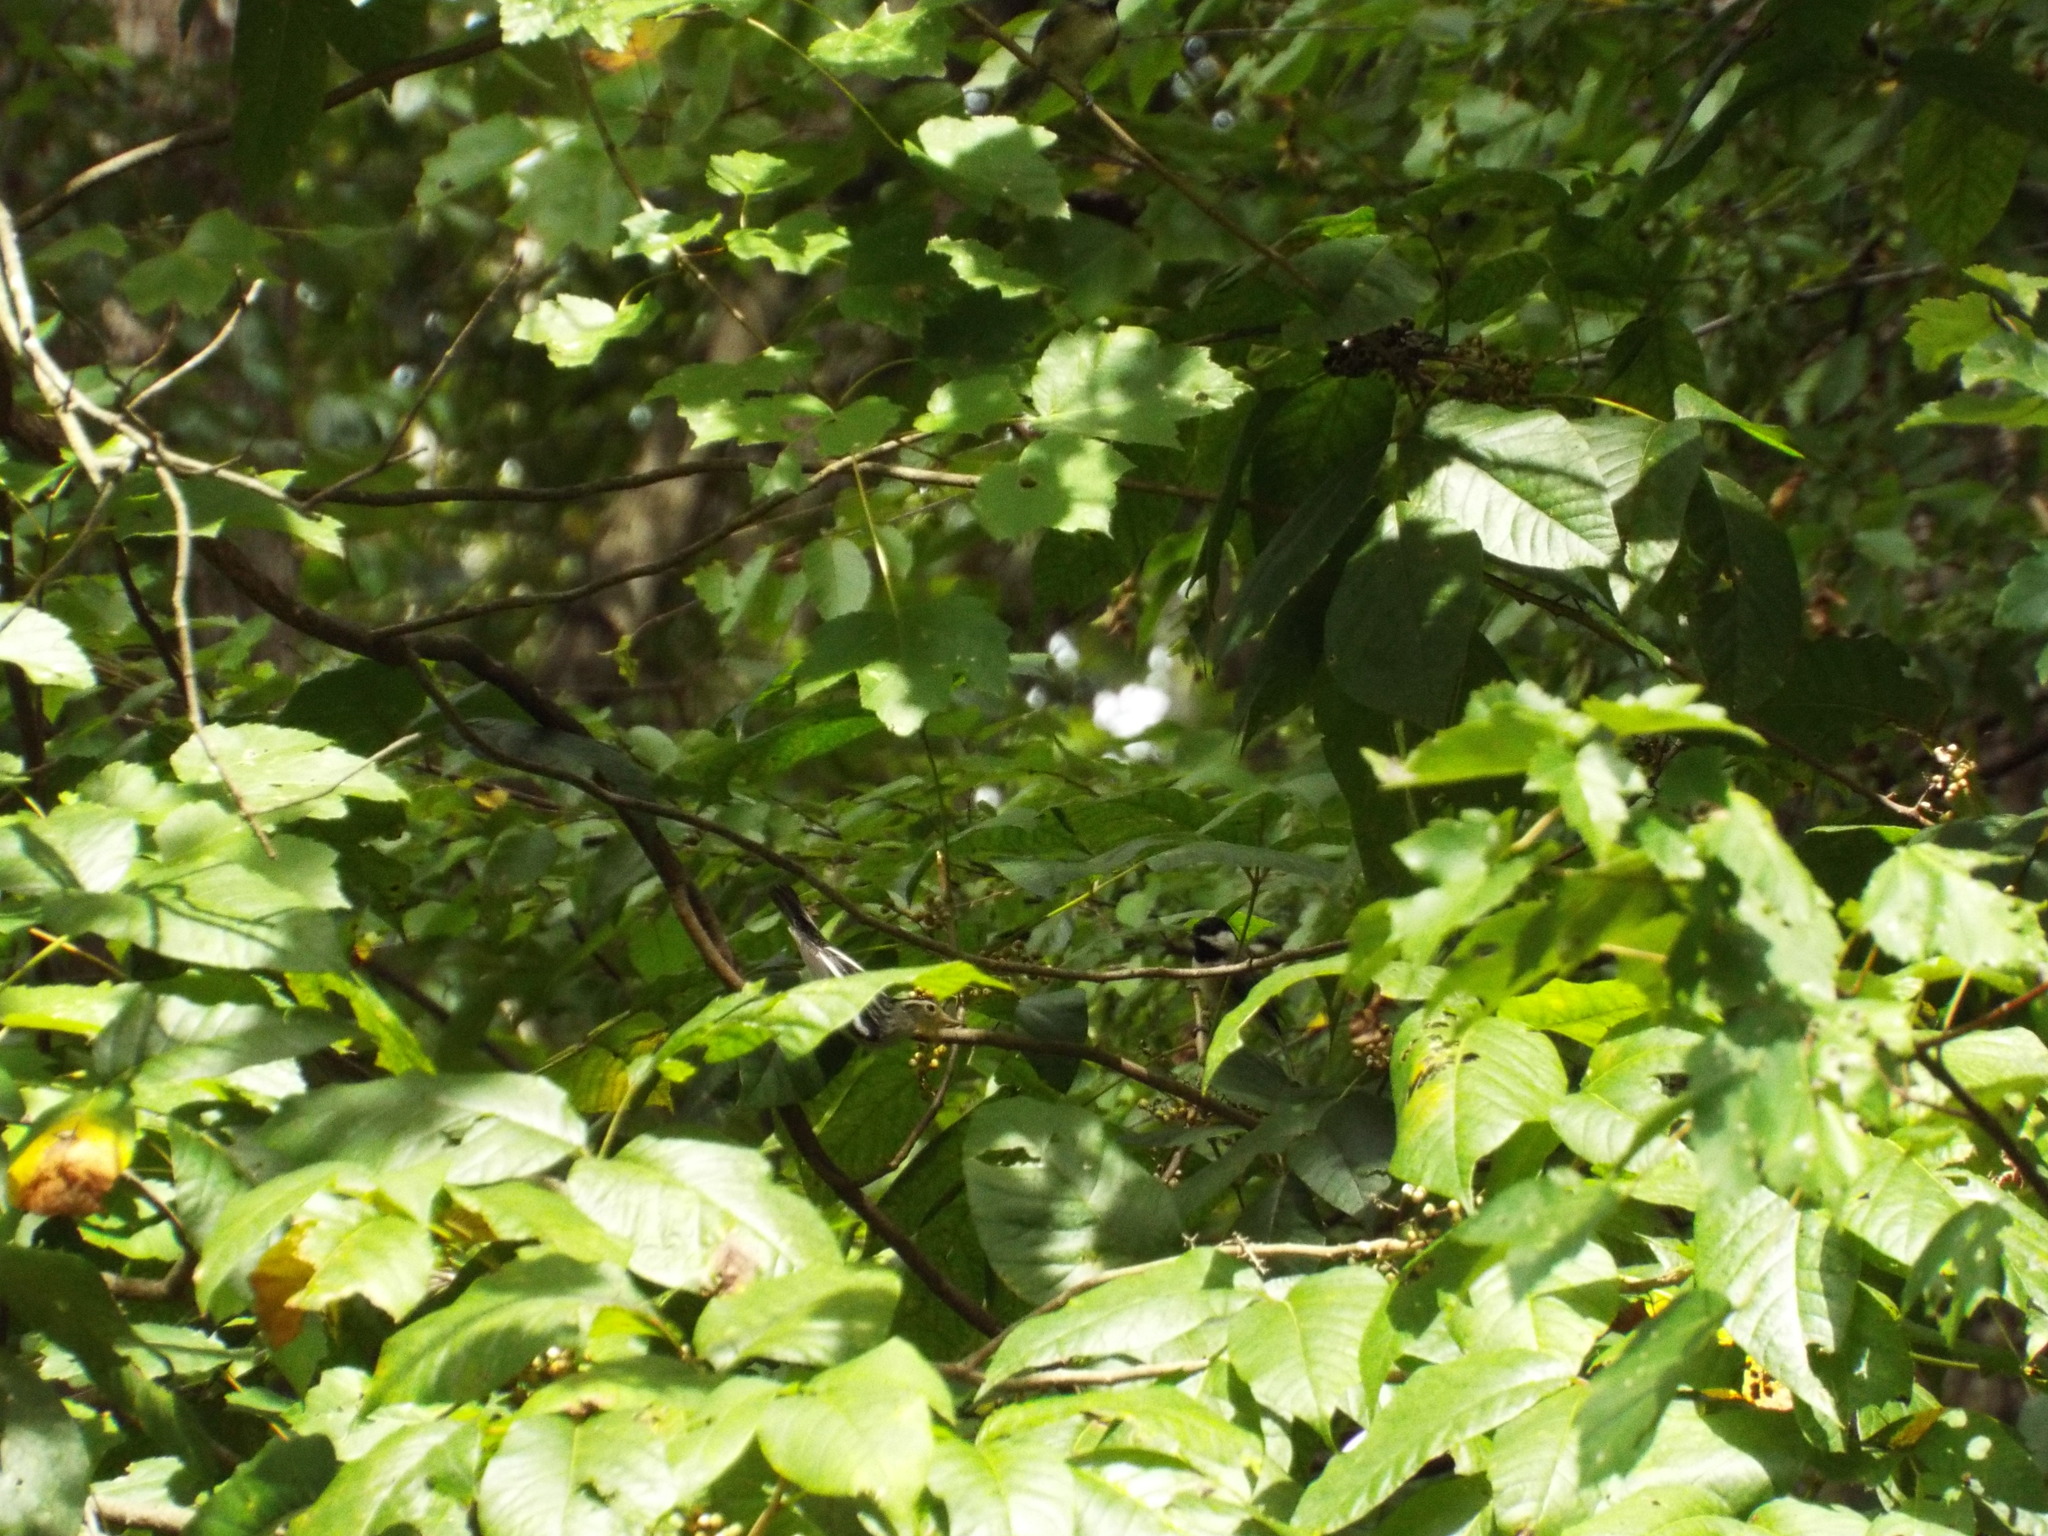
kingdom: Animalia
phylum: Chordata
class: Aves
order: Passeriformes
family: Parulidae
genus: Mniotilta
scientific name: Mniotilta varia
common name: Black-and-white warbler
